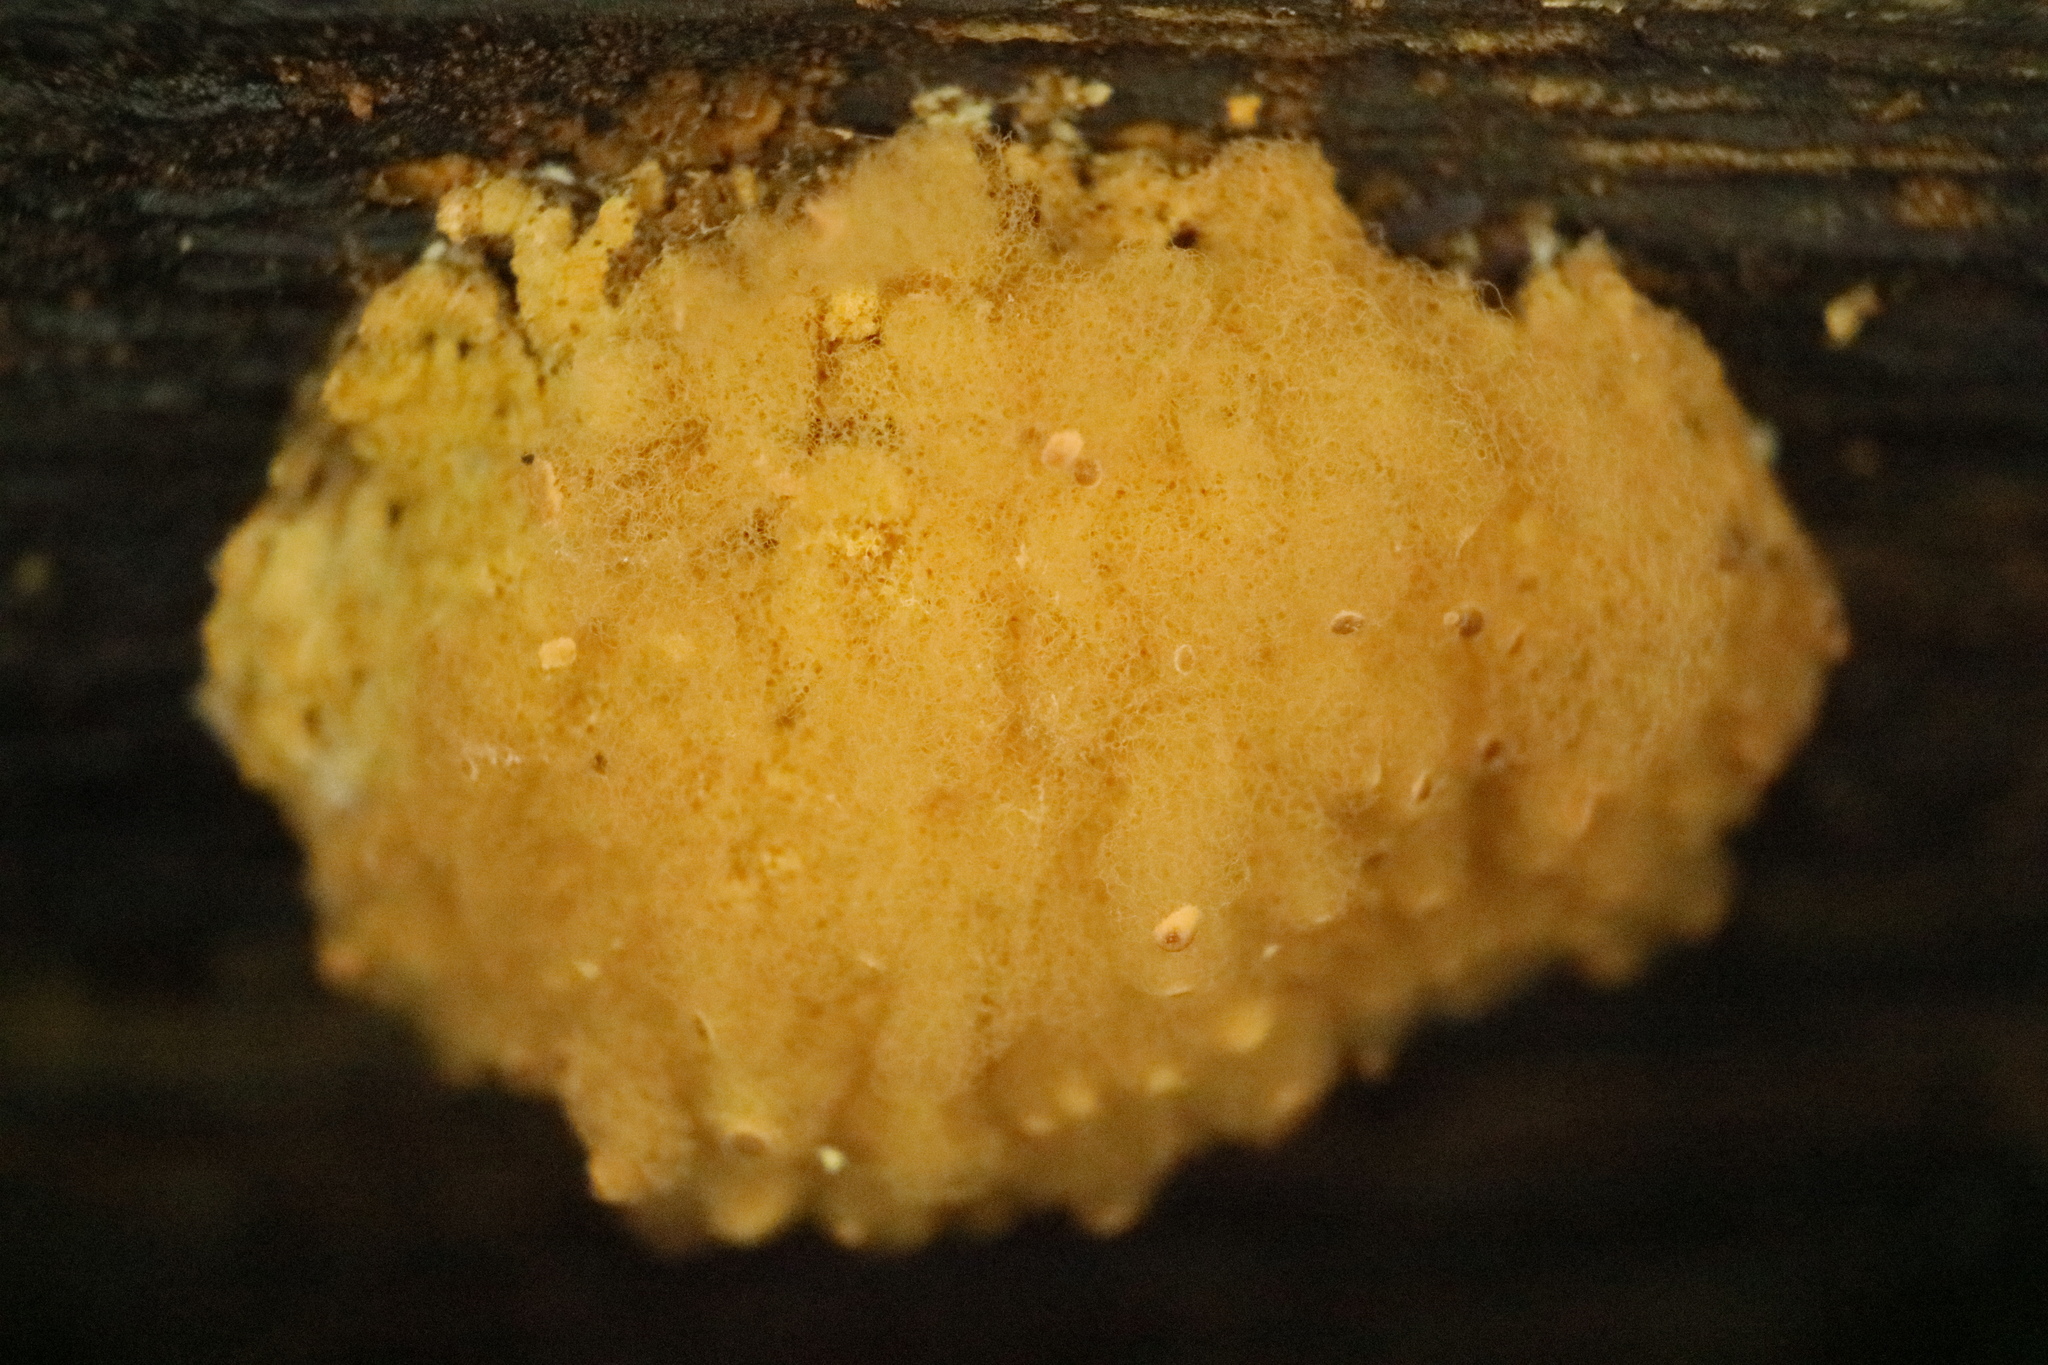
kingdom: Protozoa
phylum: Mycetozoa
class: Myxomycetes
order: Trichiales
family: Arcyriaceae
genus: Arcyria
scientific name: Arcyria obvelata
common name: Yellow carnival candy slime
